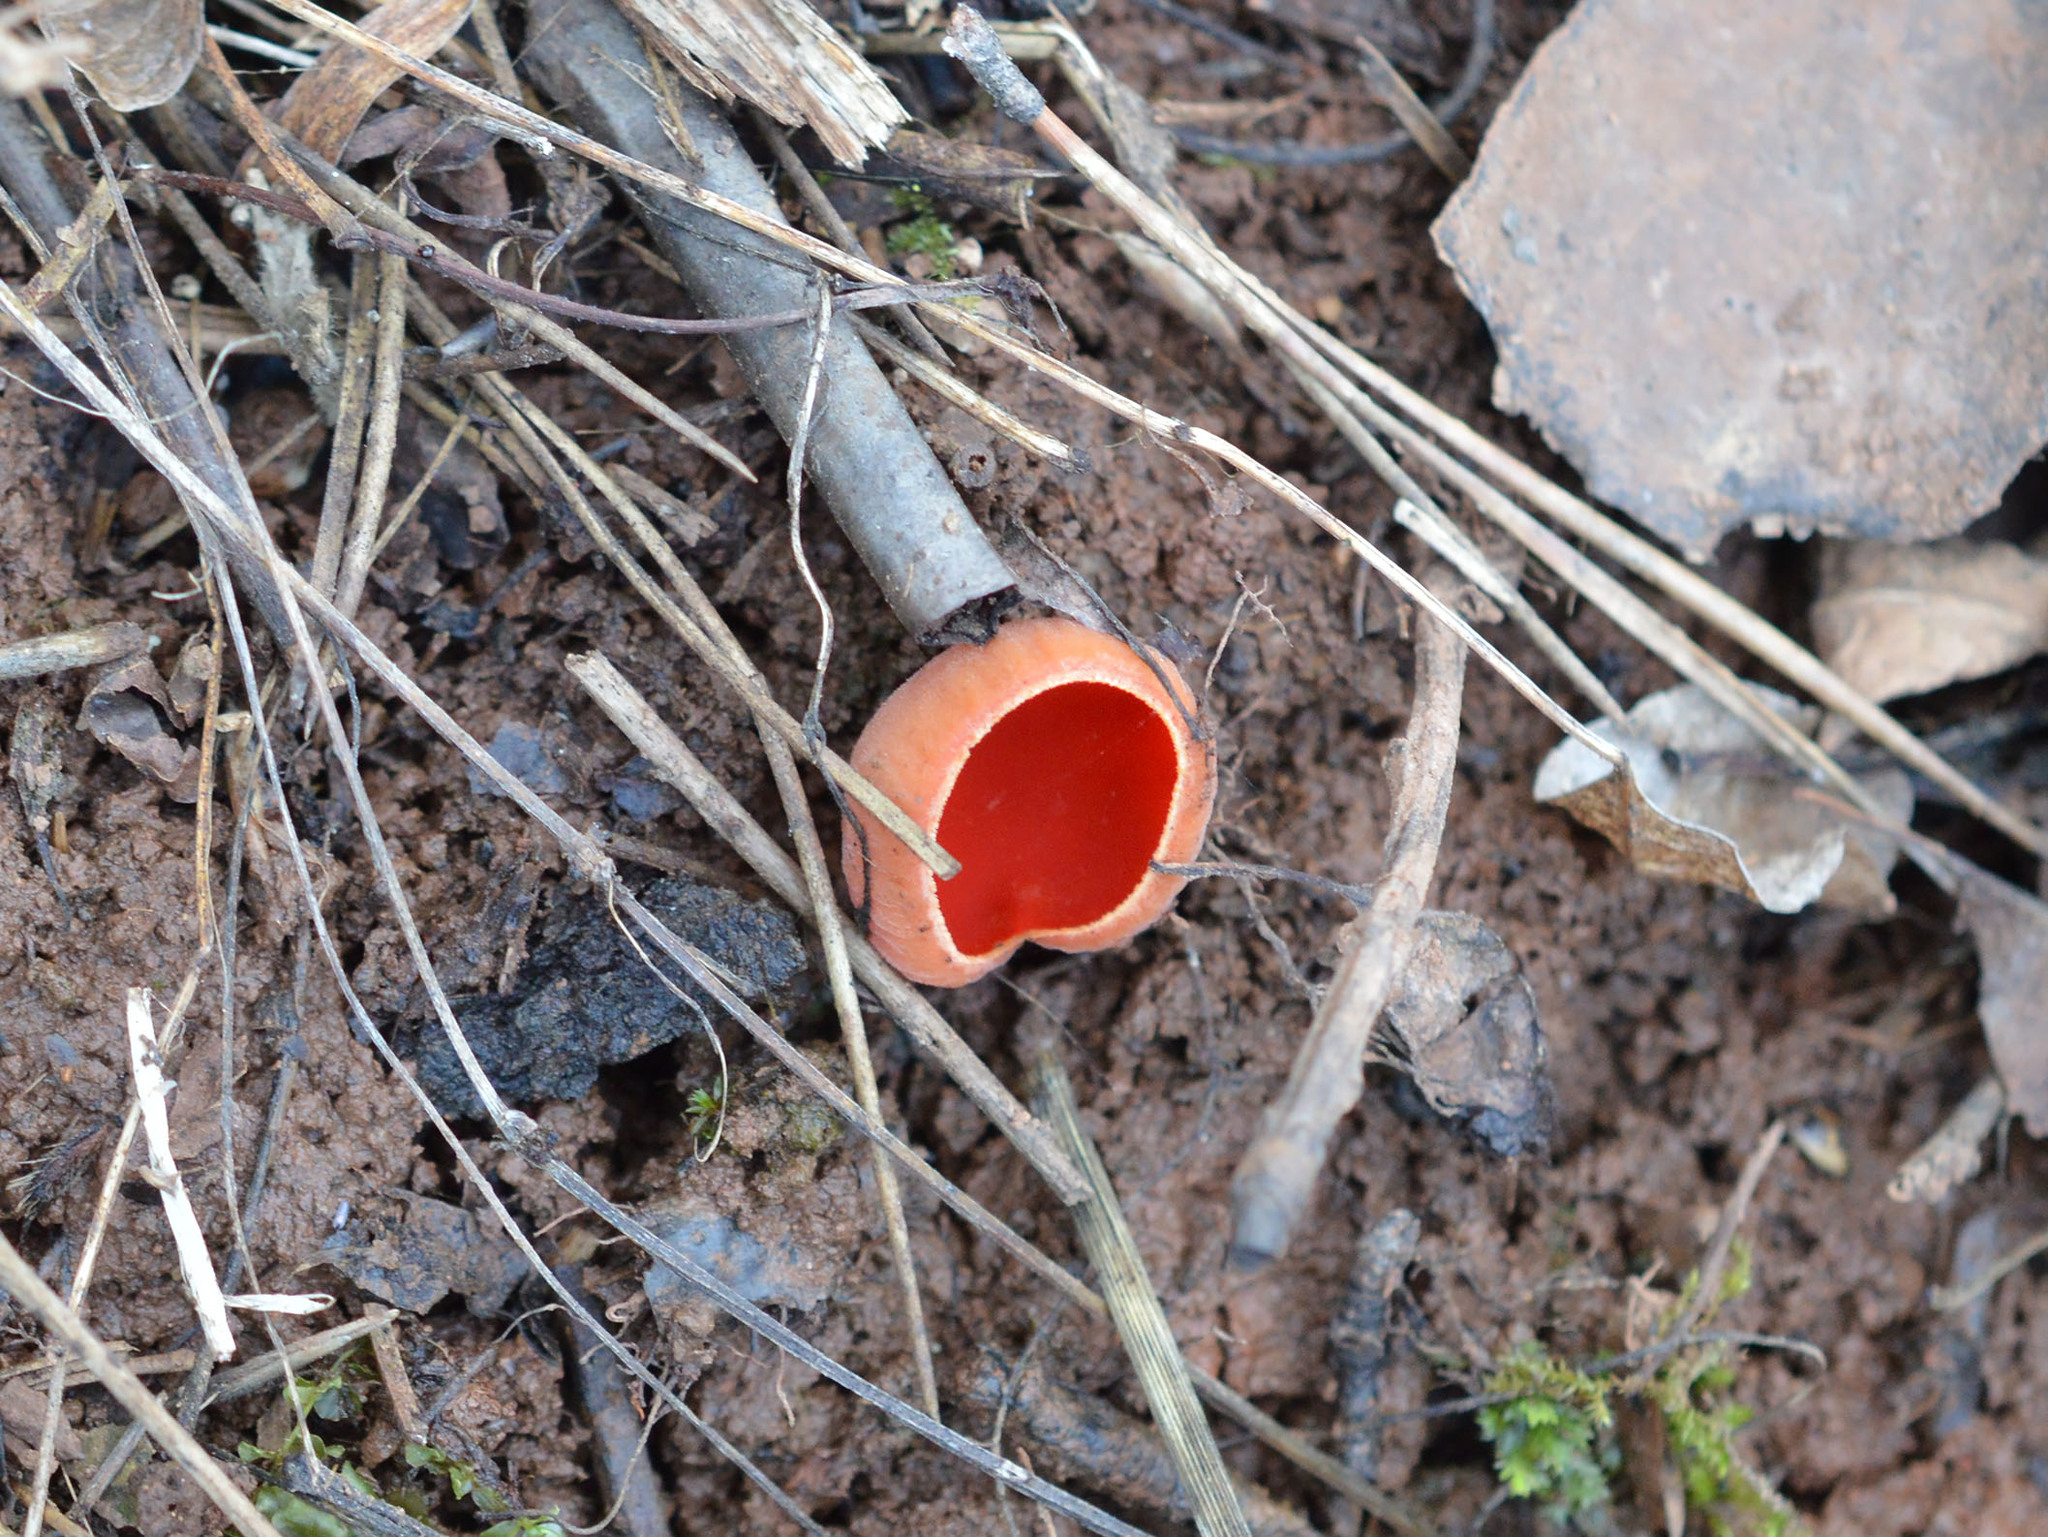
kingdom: Fungi
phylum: Ascomycota
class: Pezizomycetes
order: Pezizales
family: Sarcoscyphaceae
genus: Sarcoscypha
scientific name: Sarcoscypha
